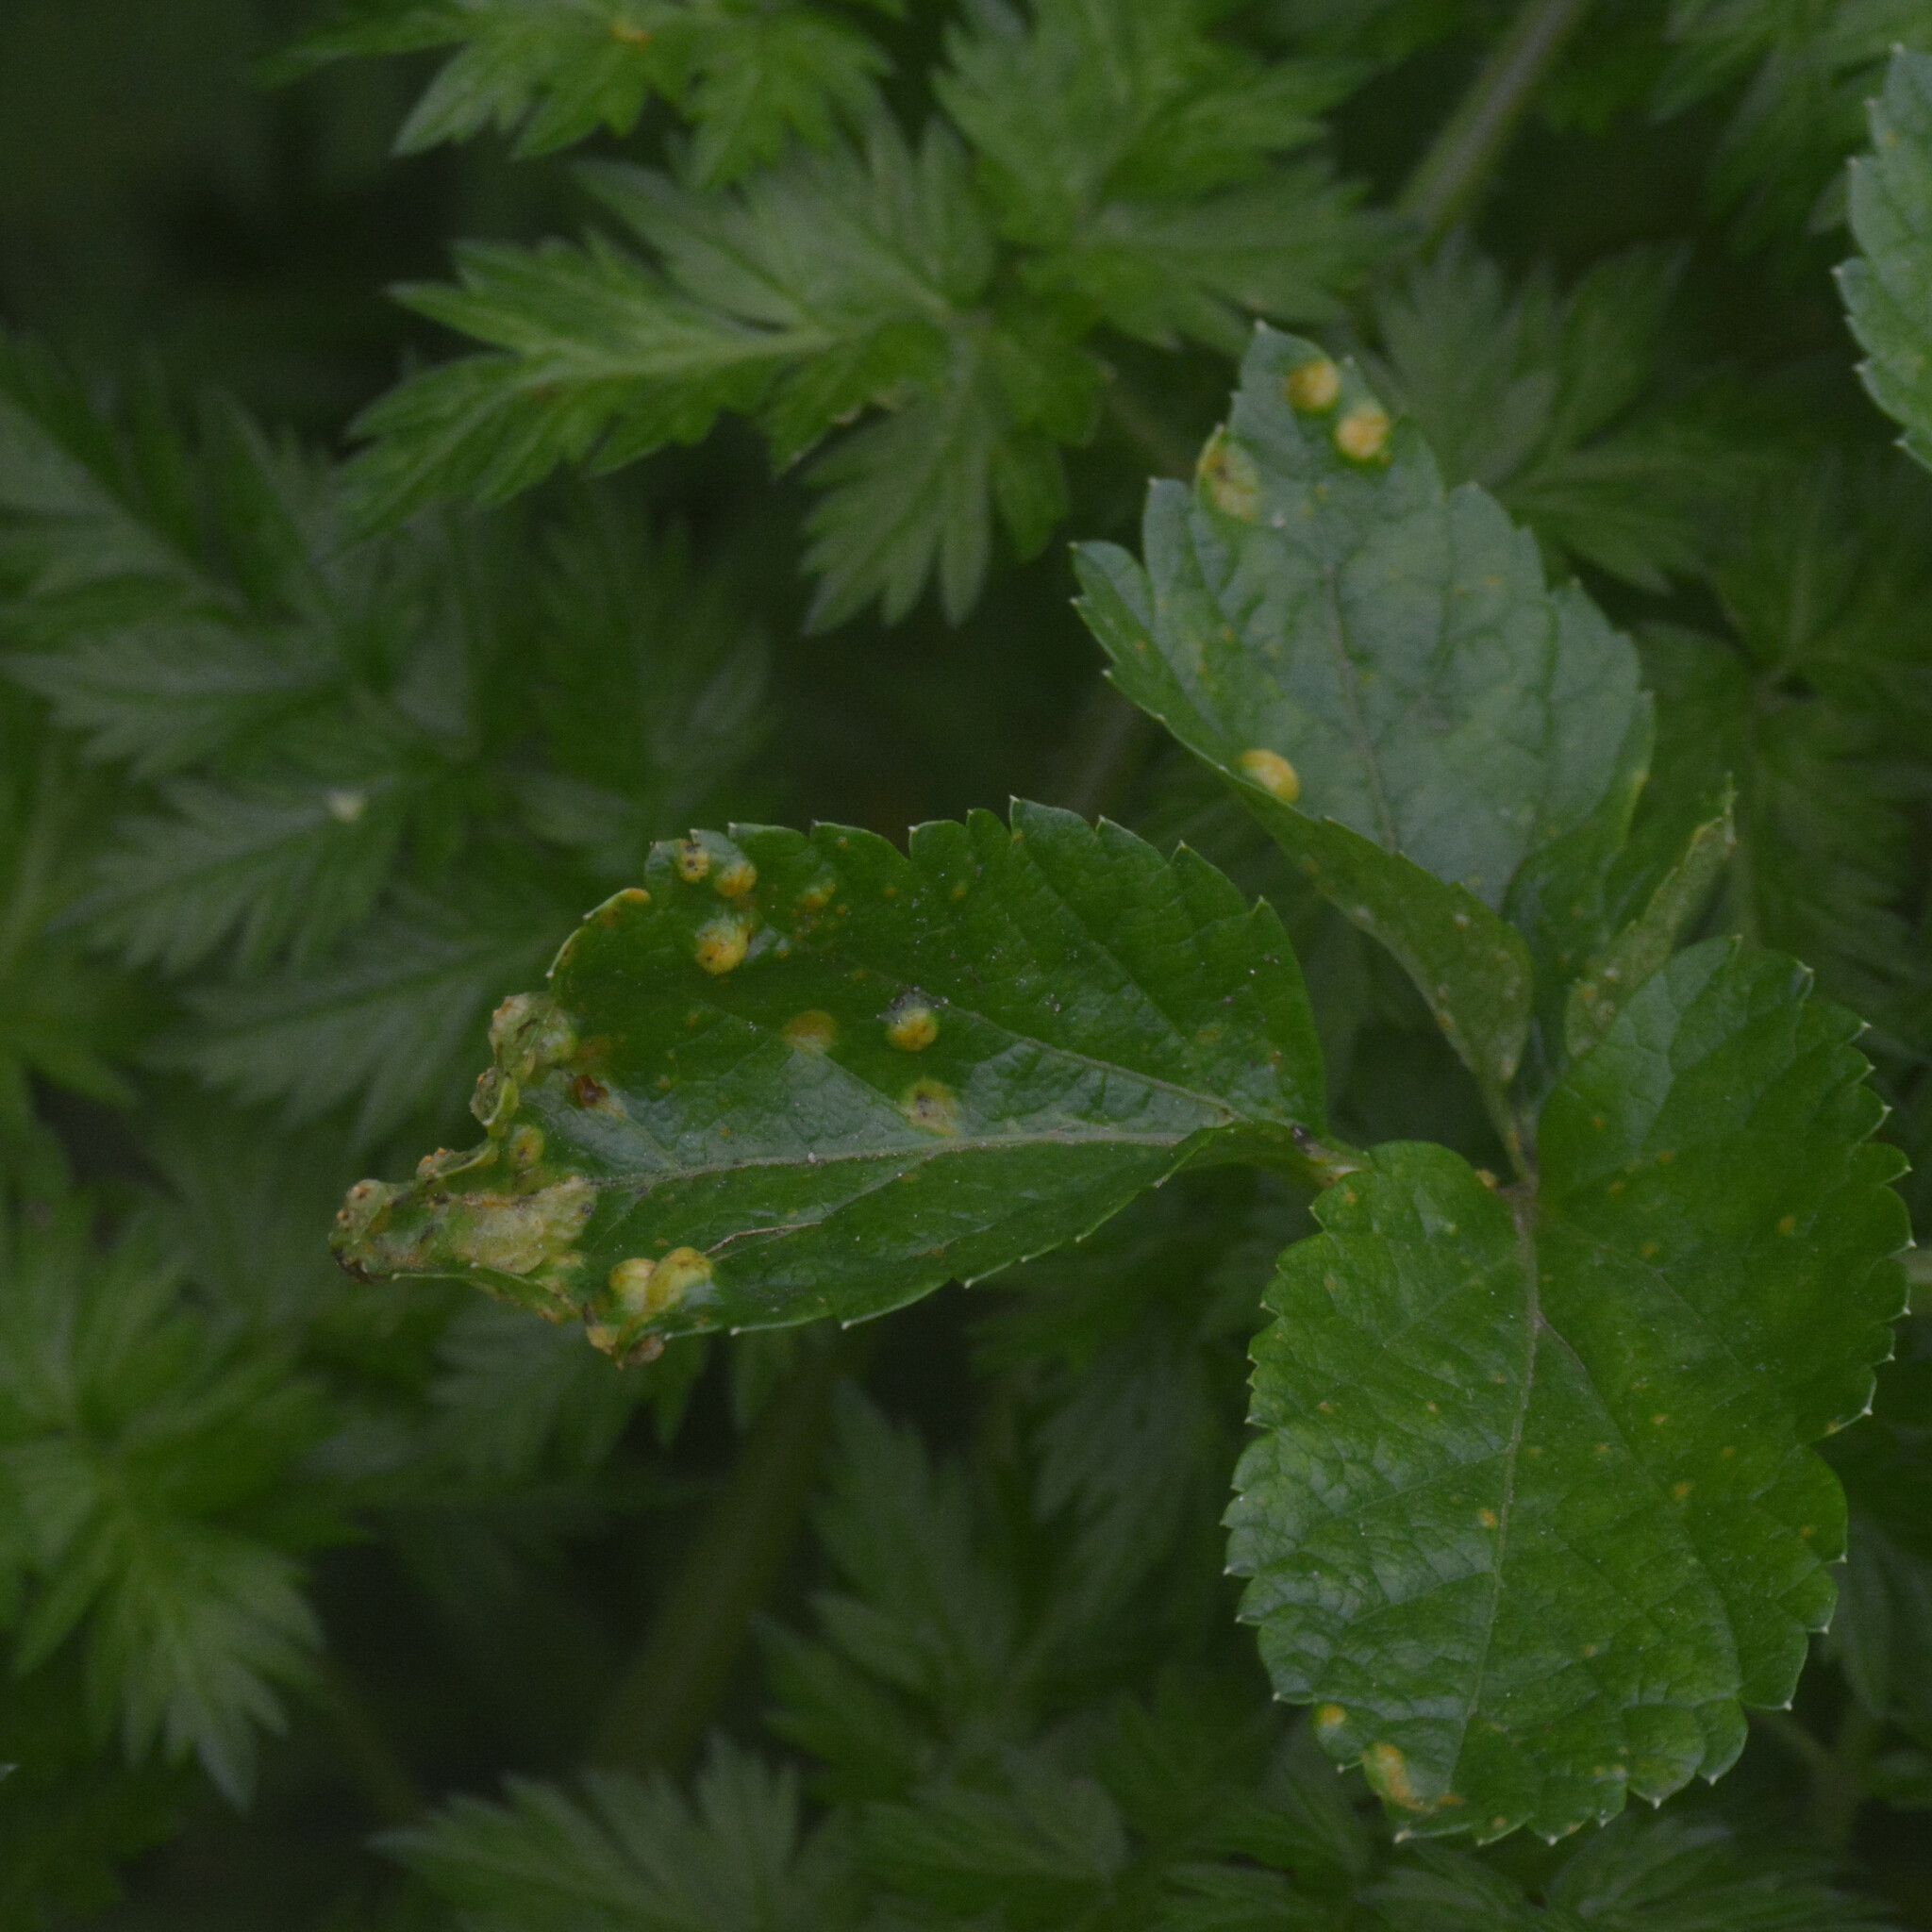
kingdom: Fungi
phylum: Basidiomycota
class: Pucciniomycetes
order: Pucciniales
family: Pucciniaceae
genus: Puccinia
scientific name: Puccinia smyrnii
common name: Alexanders rust
